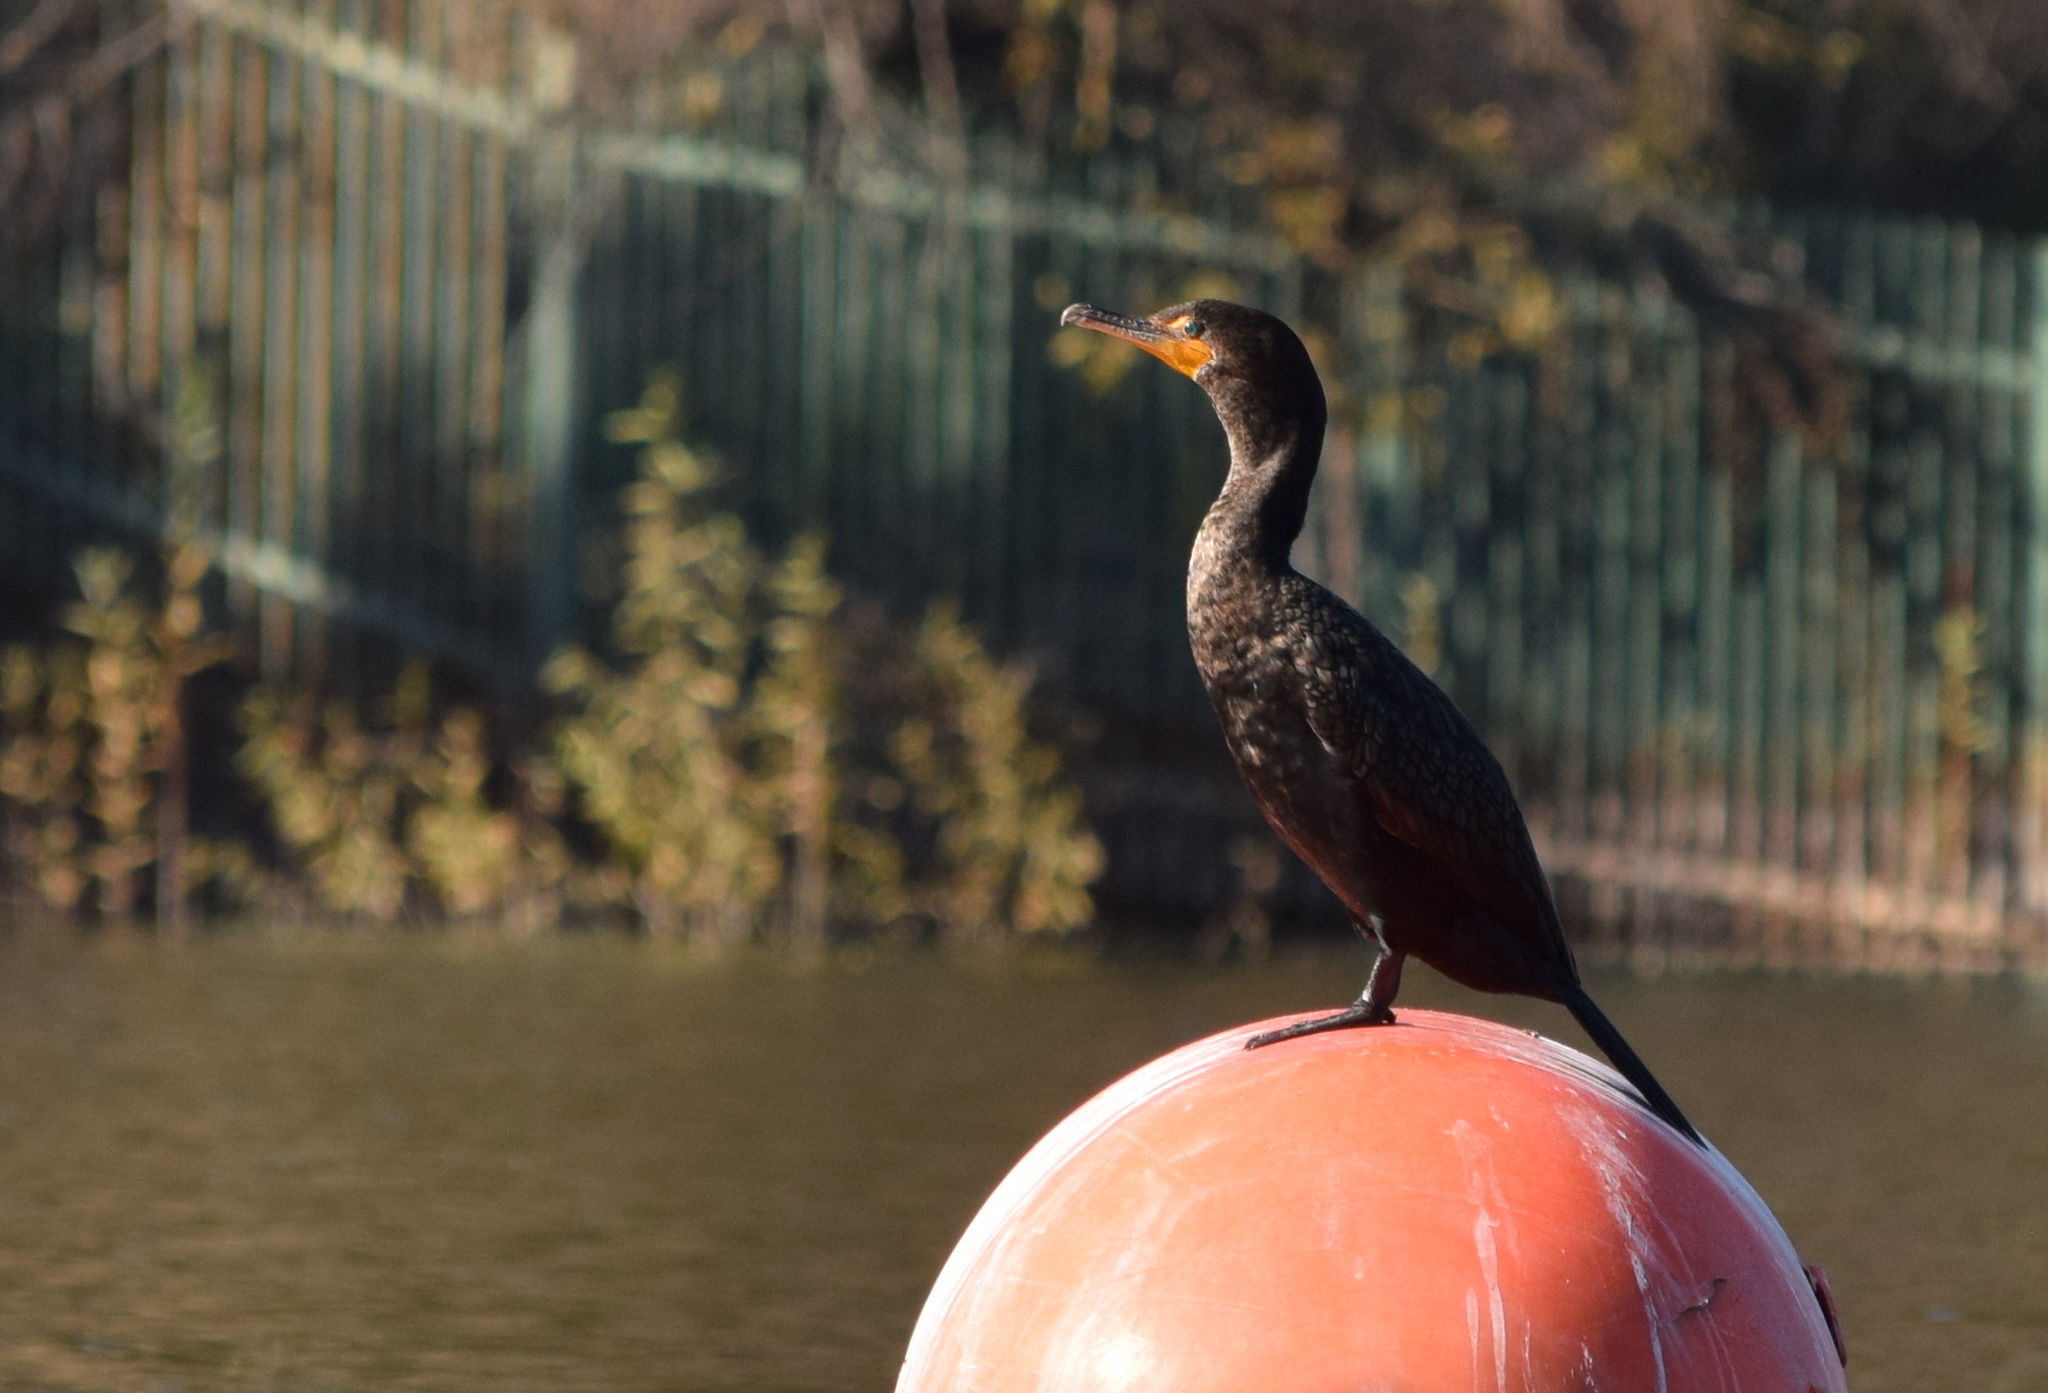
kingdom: Animalia
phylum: Chordata
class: Aves
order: Suliformes
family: Phalacrocoracidae
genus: Phalacrocorax
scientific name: Phalacrocorax auritus
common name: Double-crested cormorant
